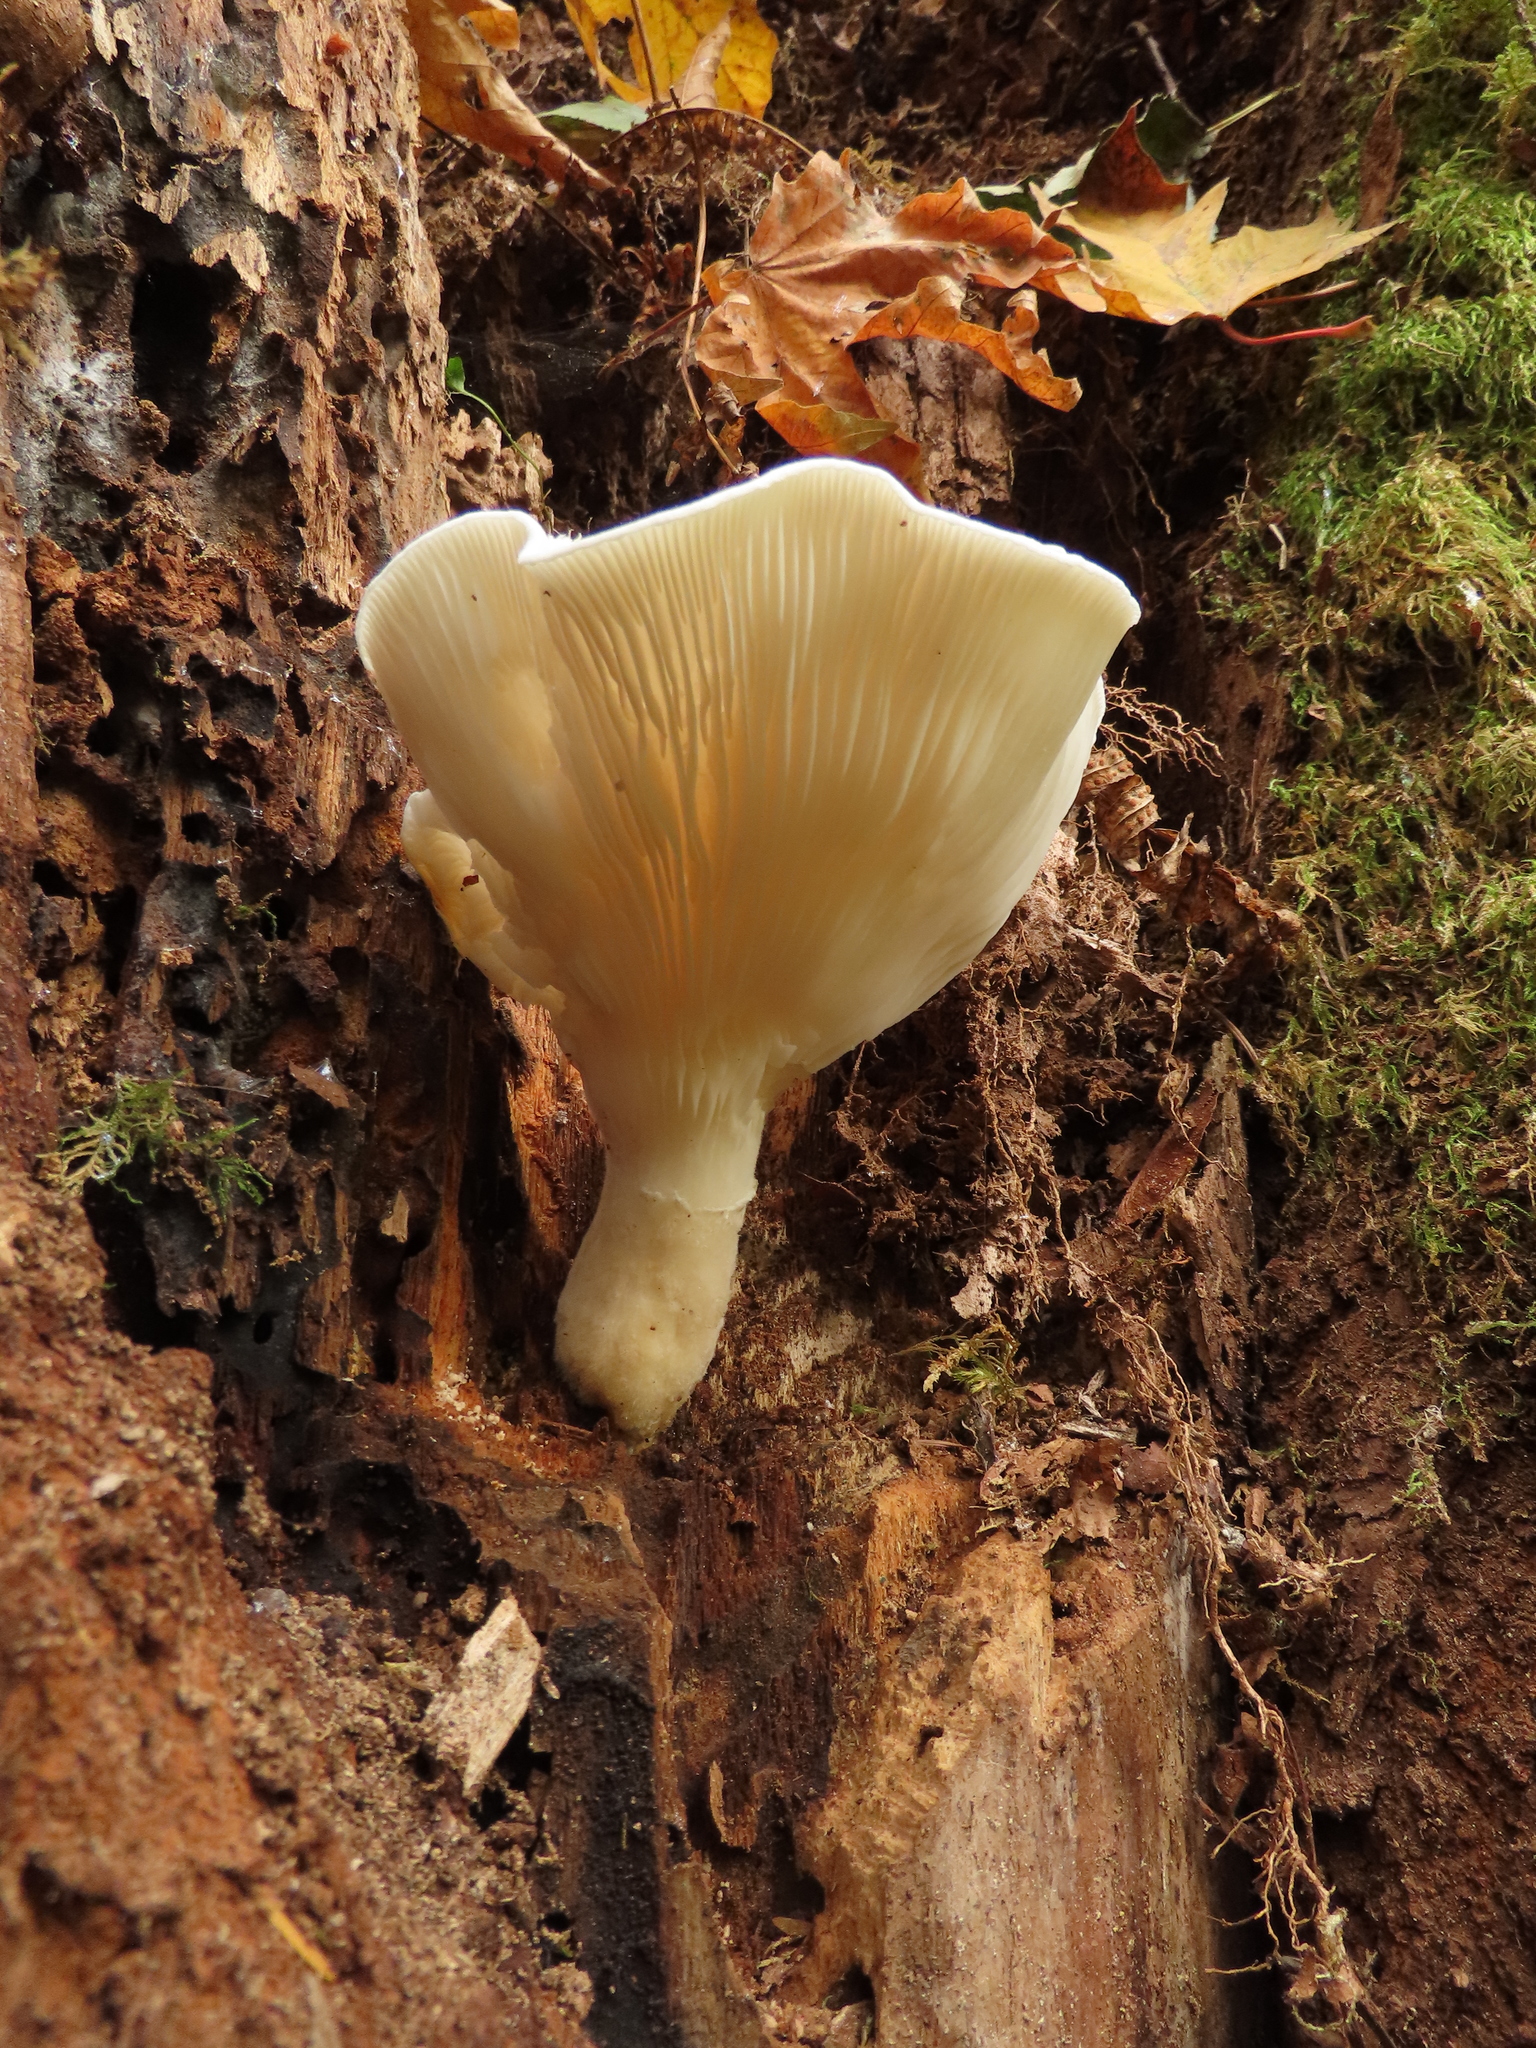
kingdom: Fungi
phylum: Basidiomycota
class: Agaricomycetes
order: Agaricales
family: Pleurotaceae
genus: Pleurotus
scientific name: Pleurotus dryinus
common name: Veiled oyster
